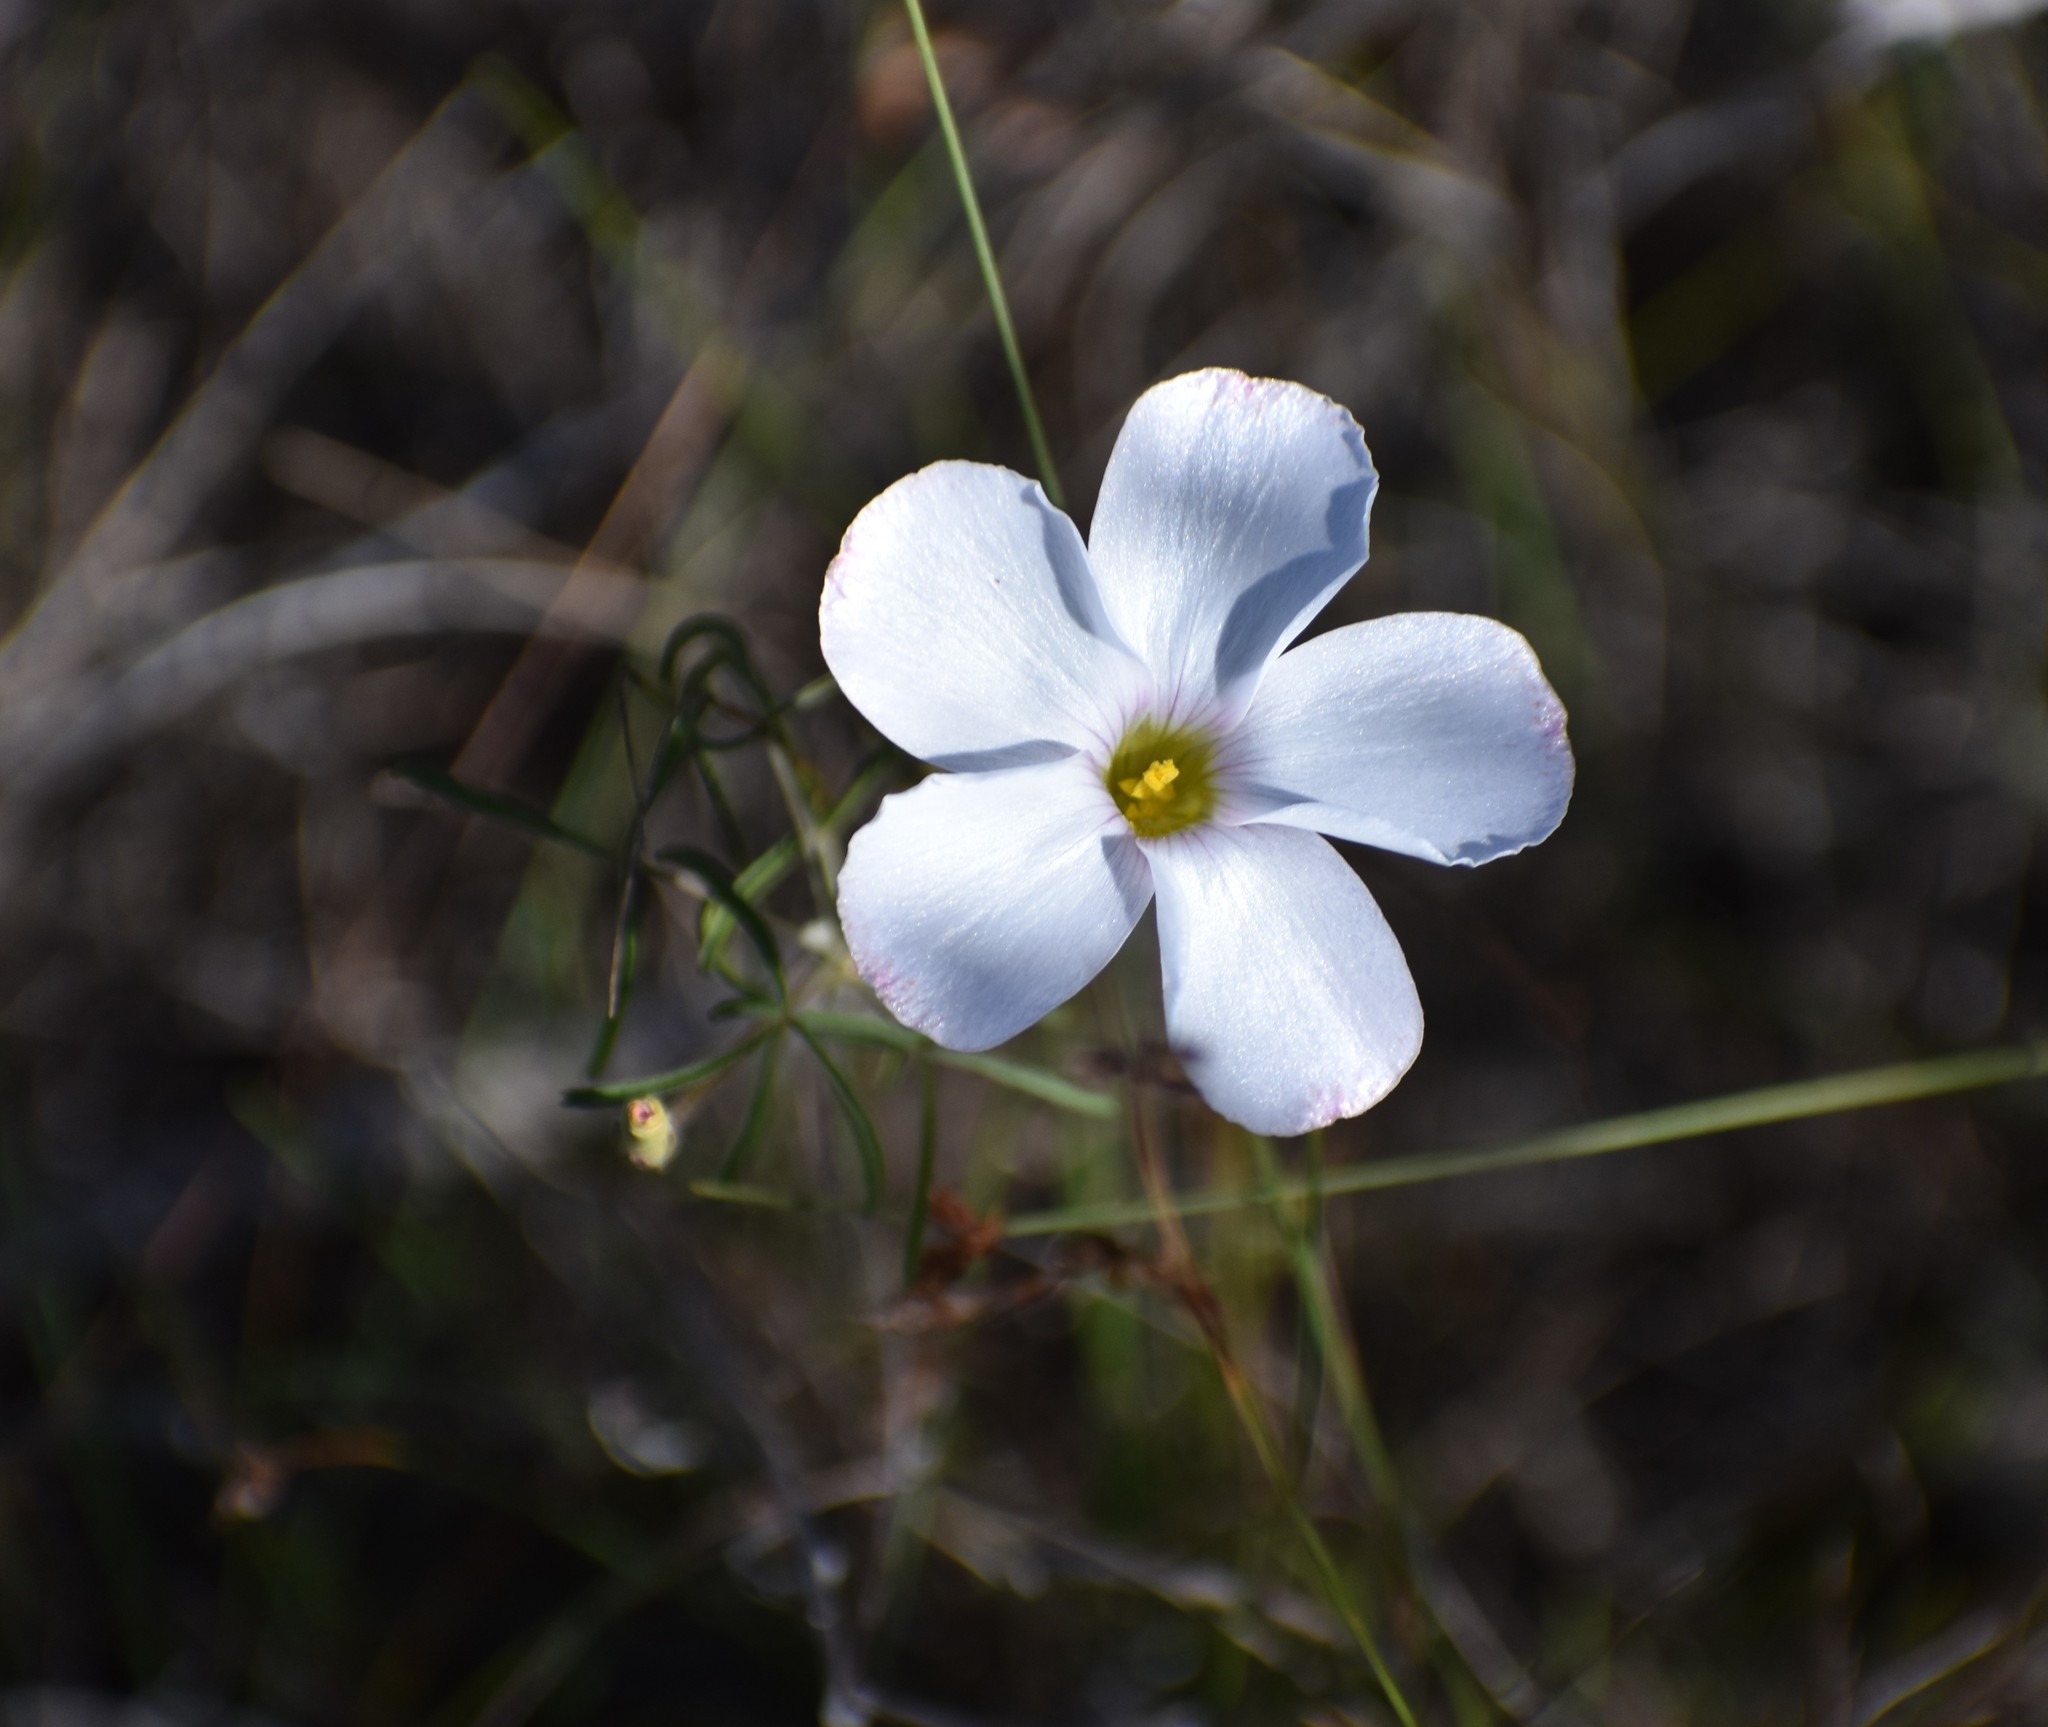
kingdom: Plantae
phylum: Tracheophyta
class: Magnoliopsida
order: Oxalidales
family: Oxalidaceae
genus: Oxalis
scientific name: Oxalis ciliaris
